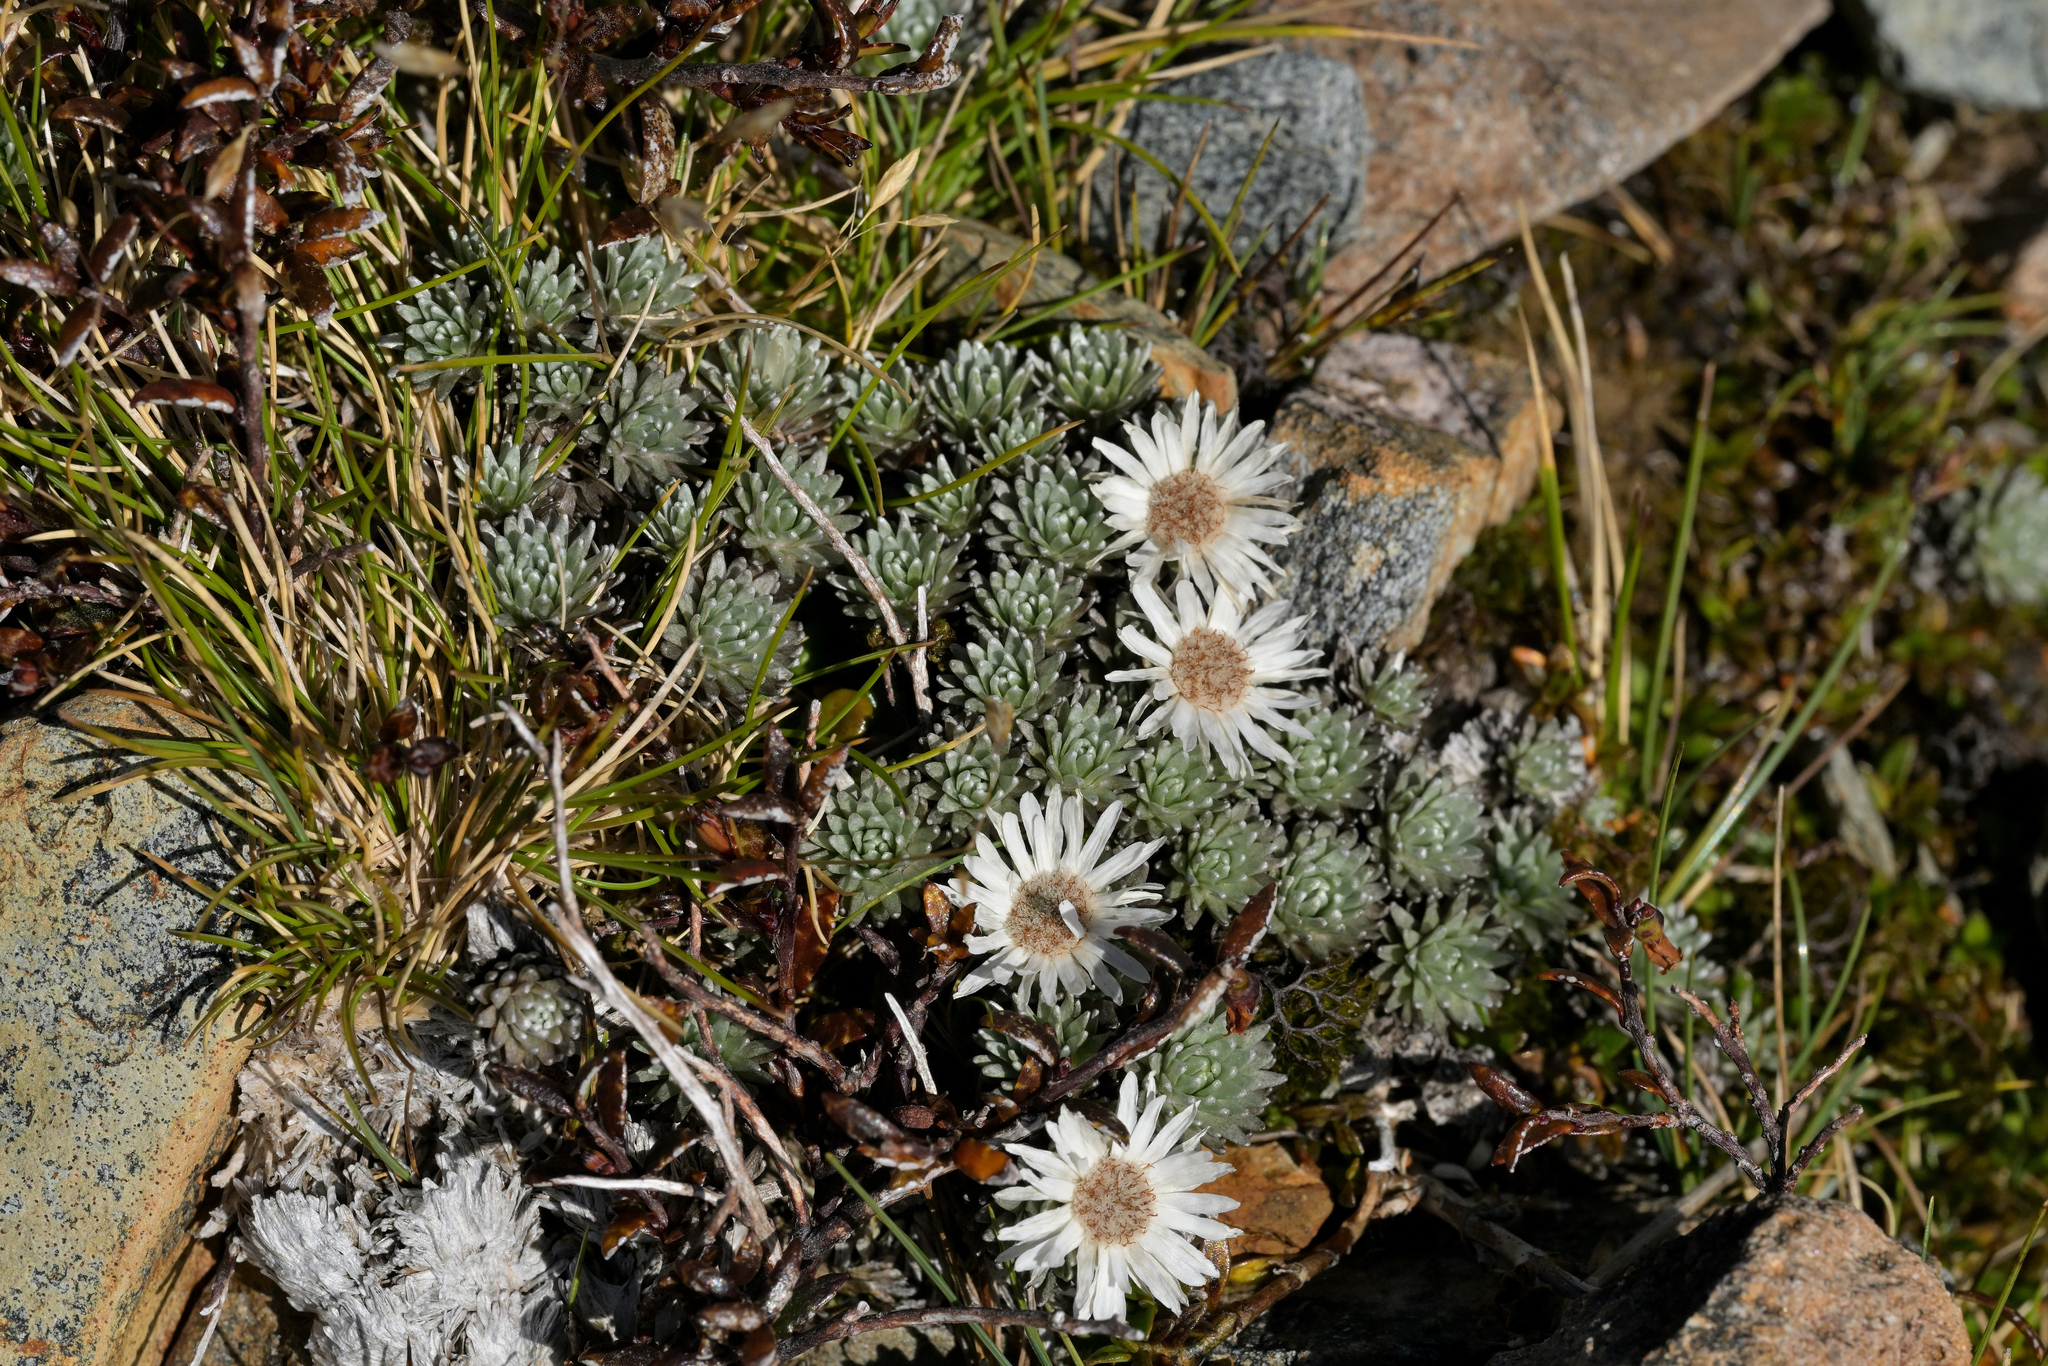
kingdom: Plantae
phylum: Tracheophyta
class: Magnoliopsida
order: Asterales
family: Asteraceae
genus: Raoulia
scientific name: Raoulia grandiflora
